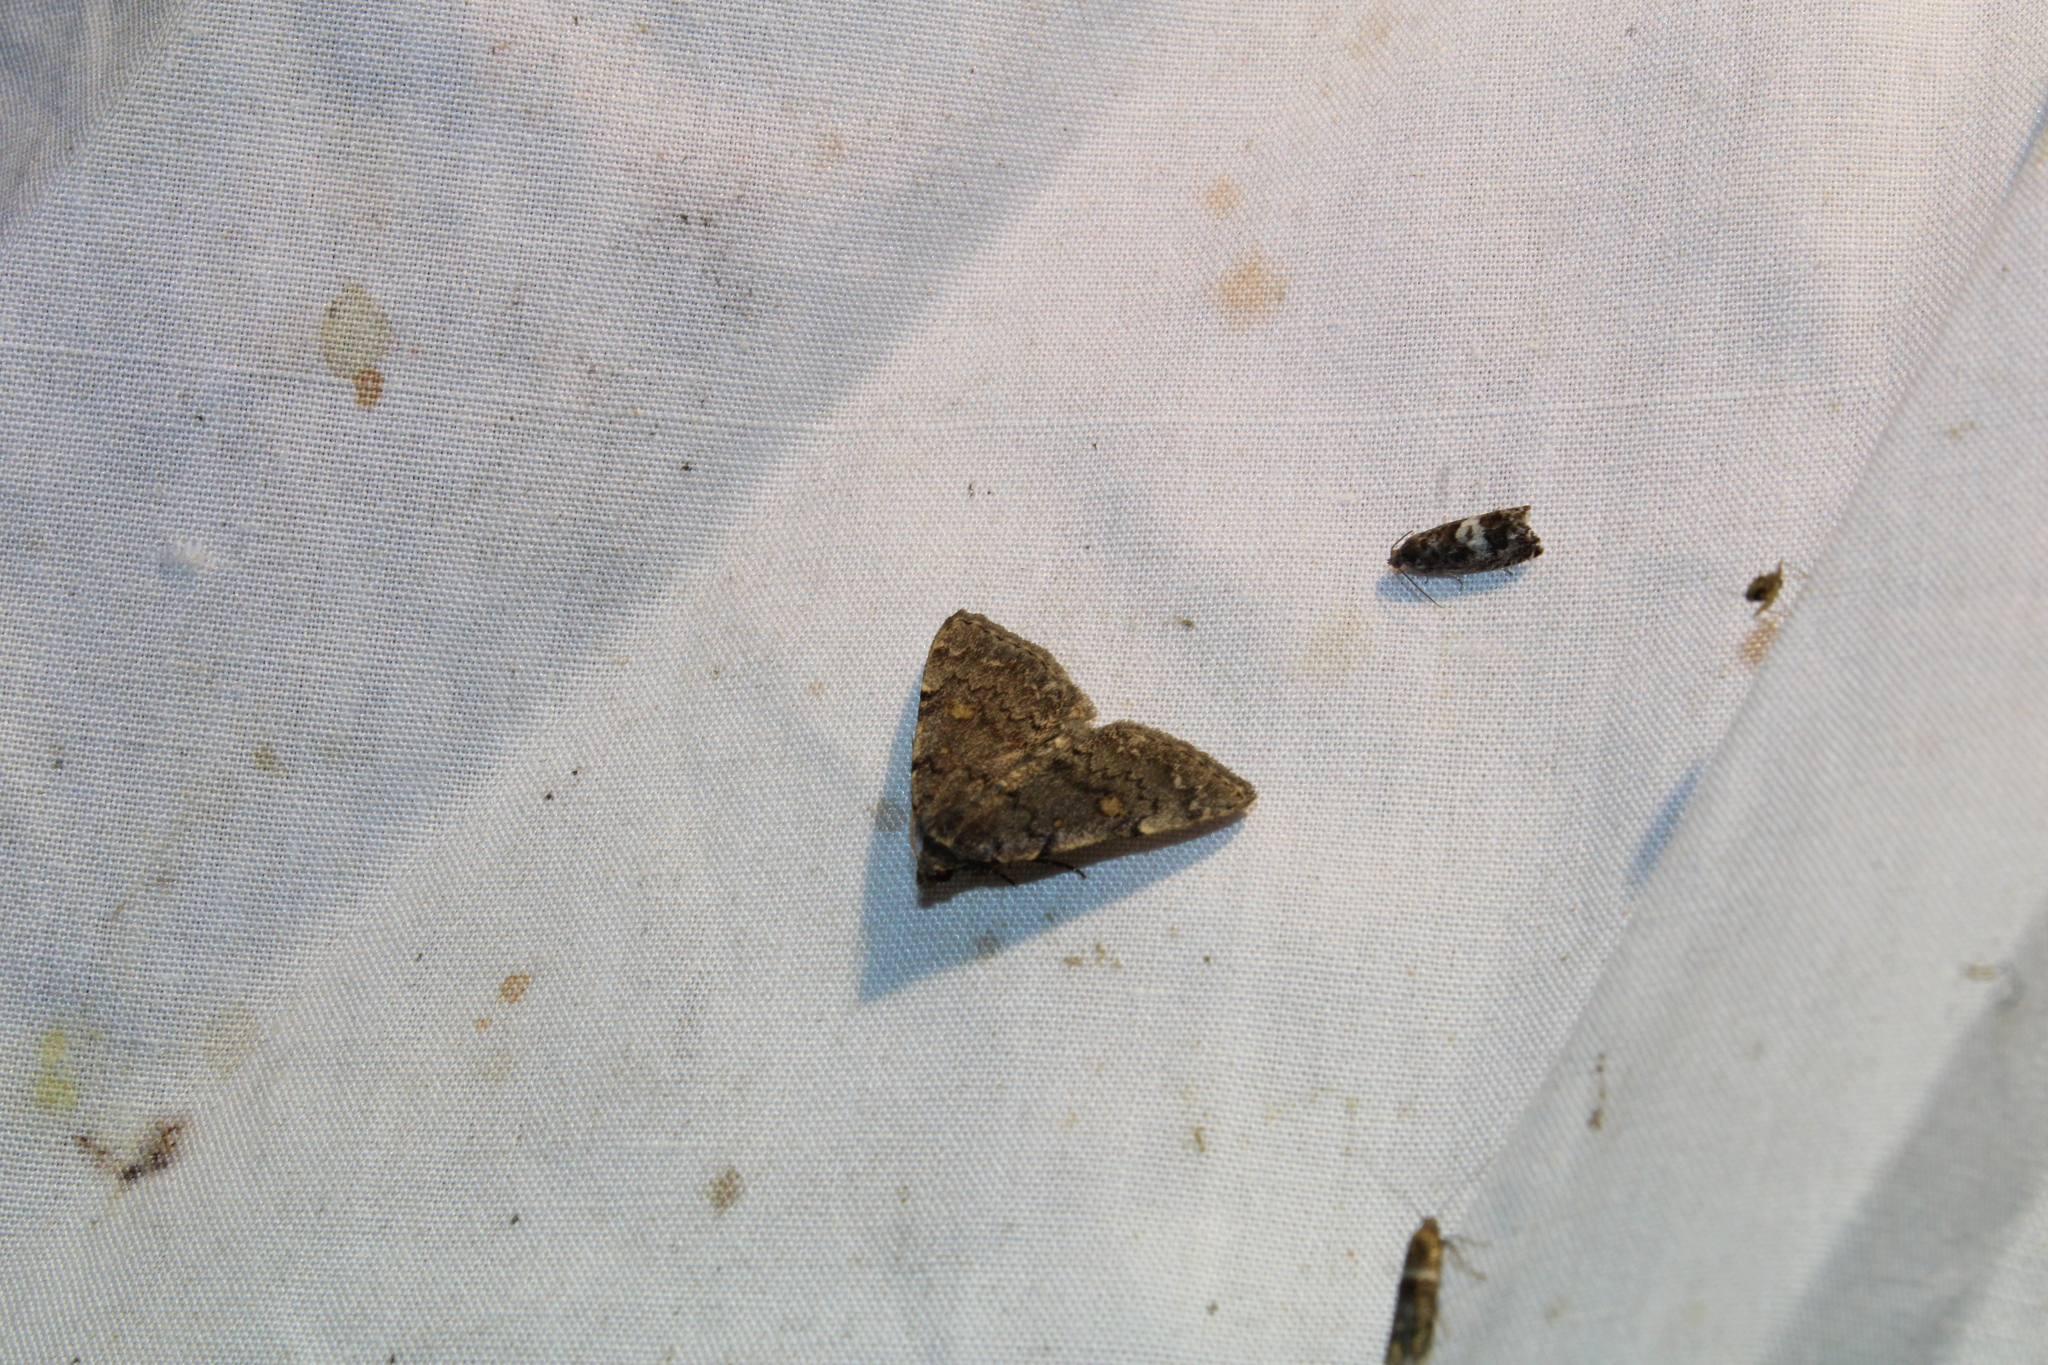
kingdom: Animalia
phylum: Arthropoda
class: Insecta
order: Lepidoptera
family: Erebidae
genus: Idia
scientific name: Idia aemula
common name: Common idia moth
